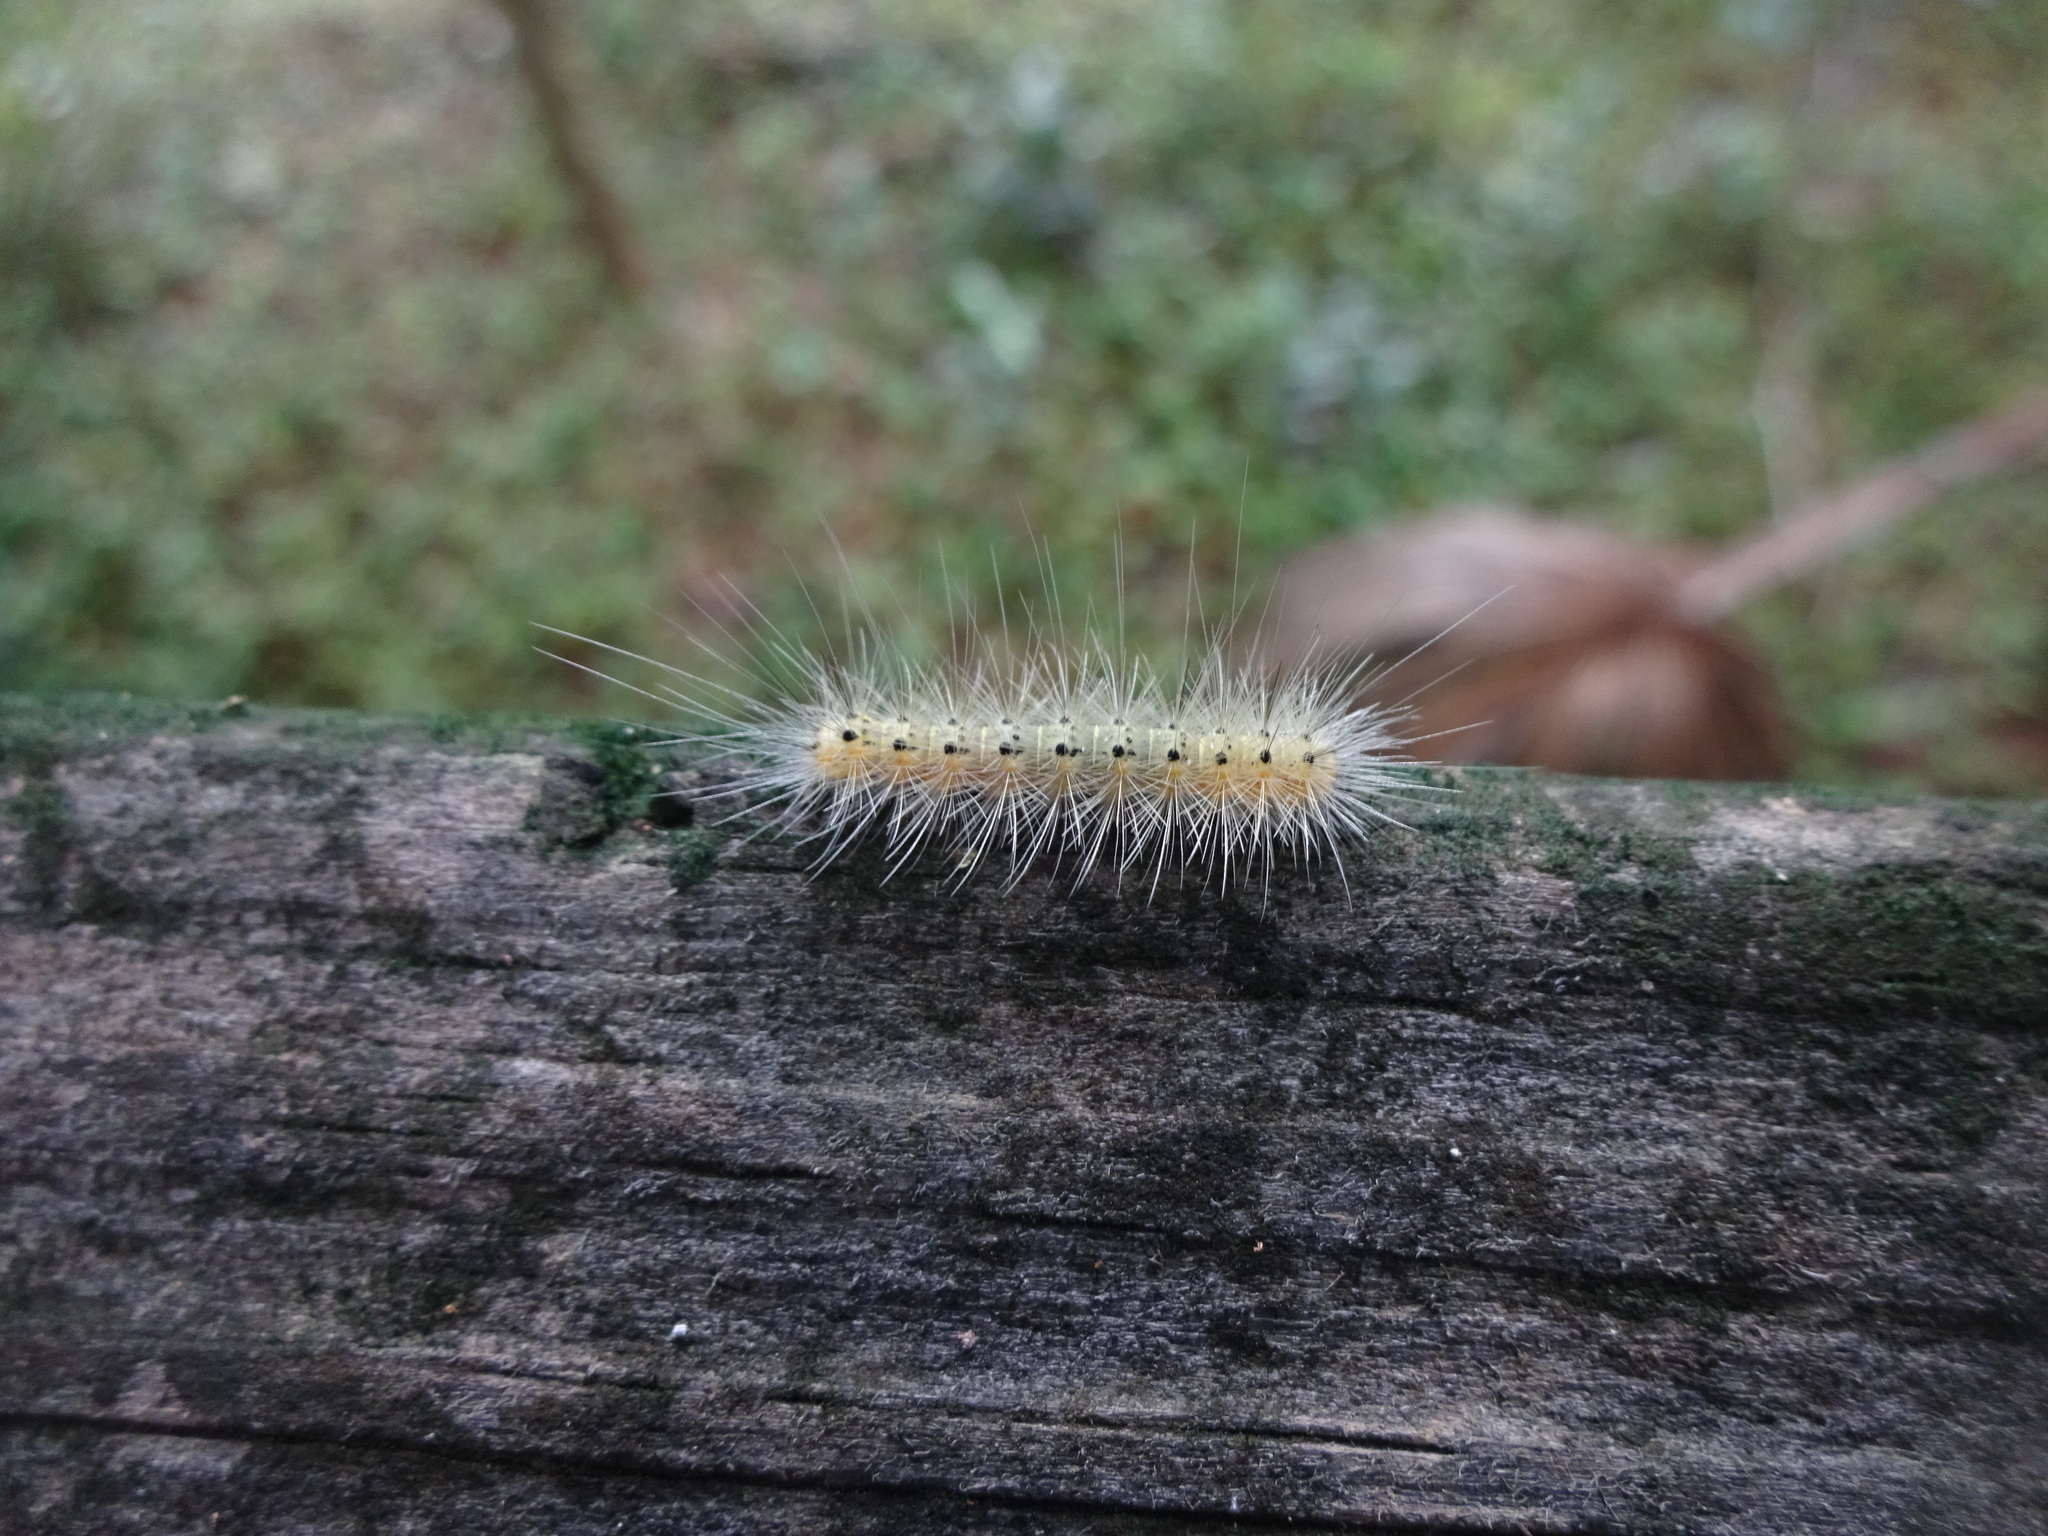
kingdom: Animalia
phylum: Arthropoda
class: Insecta
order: Lepidoptera
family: Erebidae
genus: Hyphantria
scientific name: Hyphantria cunea
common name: American white moth
